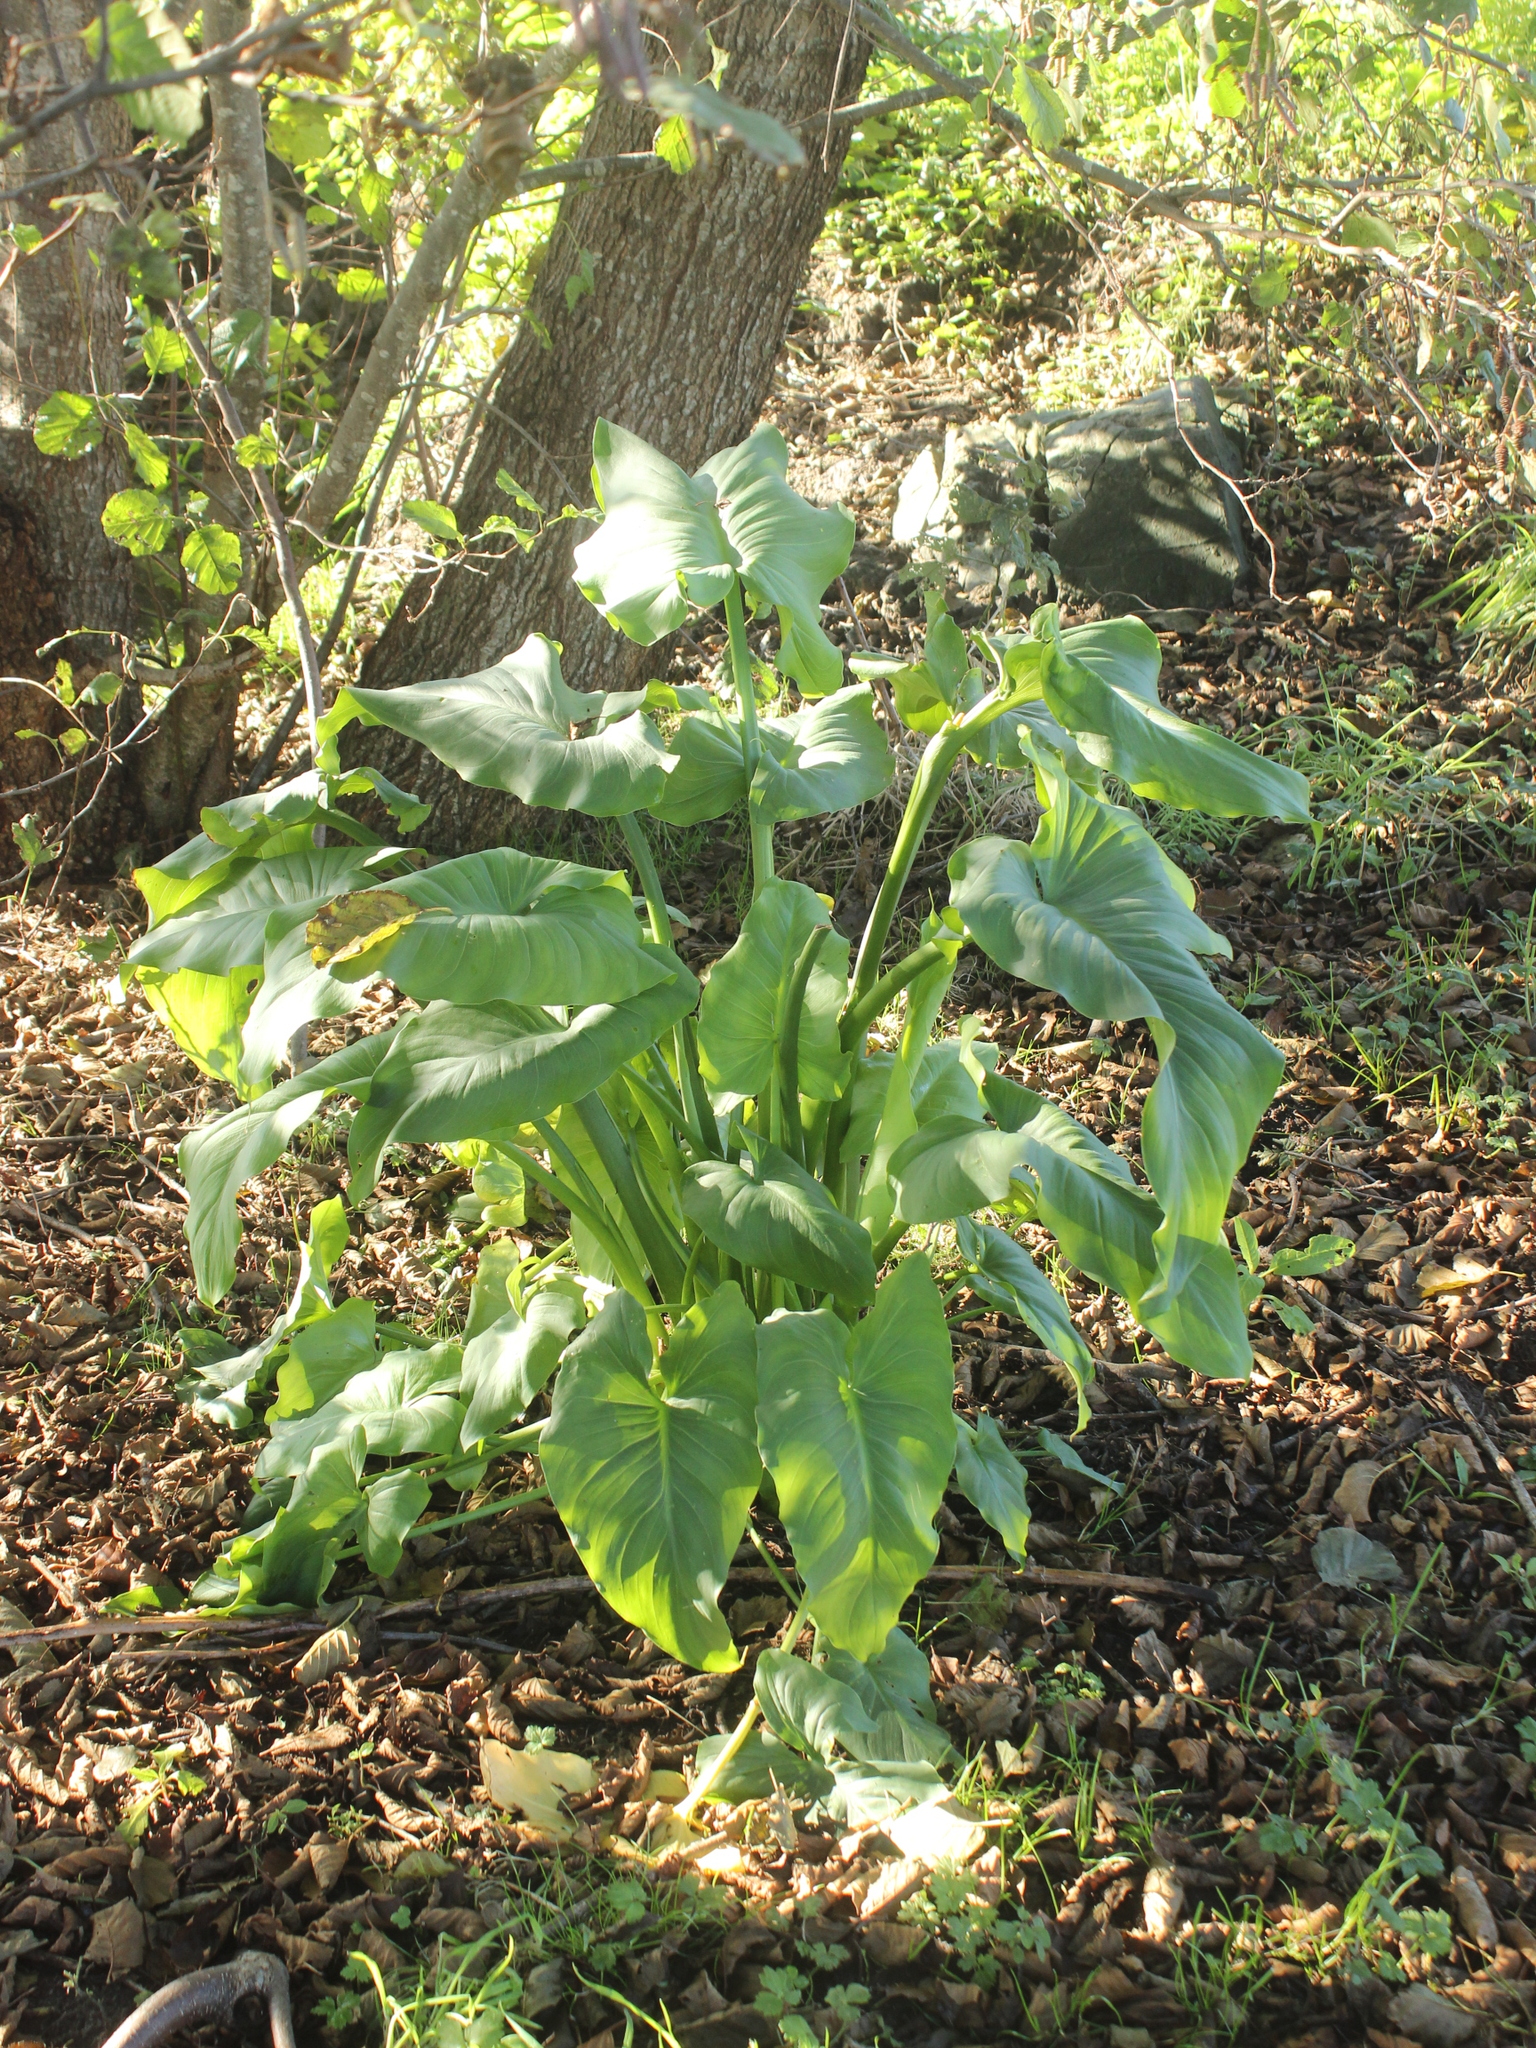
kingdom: Plantae
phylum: Tracheophyta
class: Liliopsida
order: Alismatales
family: Araceae
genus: Zantedeschia
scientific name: Zantedeschia aethiopica
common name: Altar-lily
